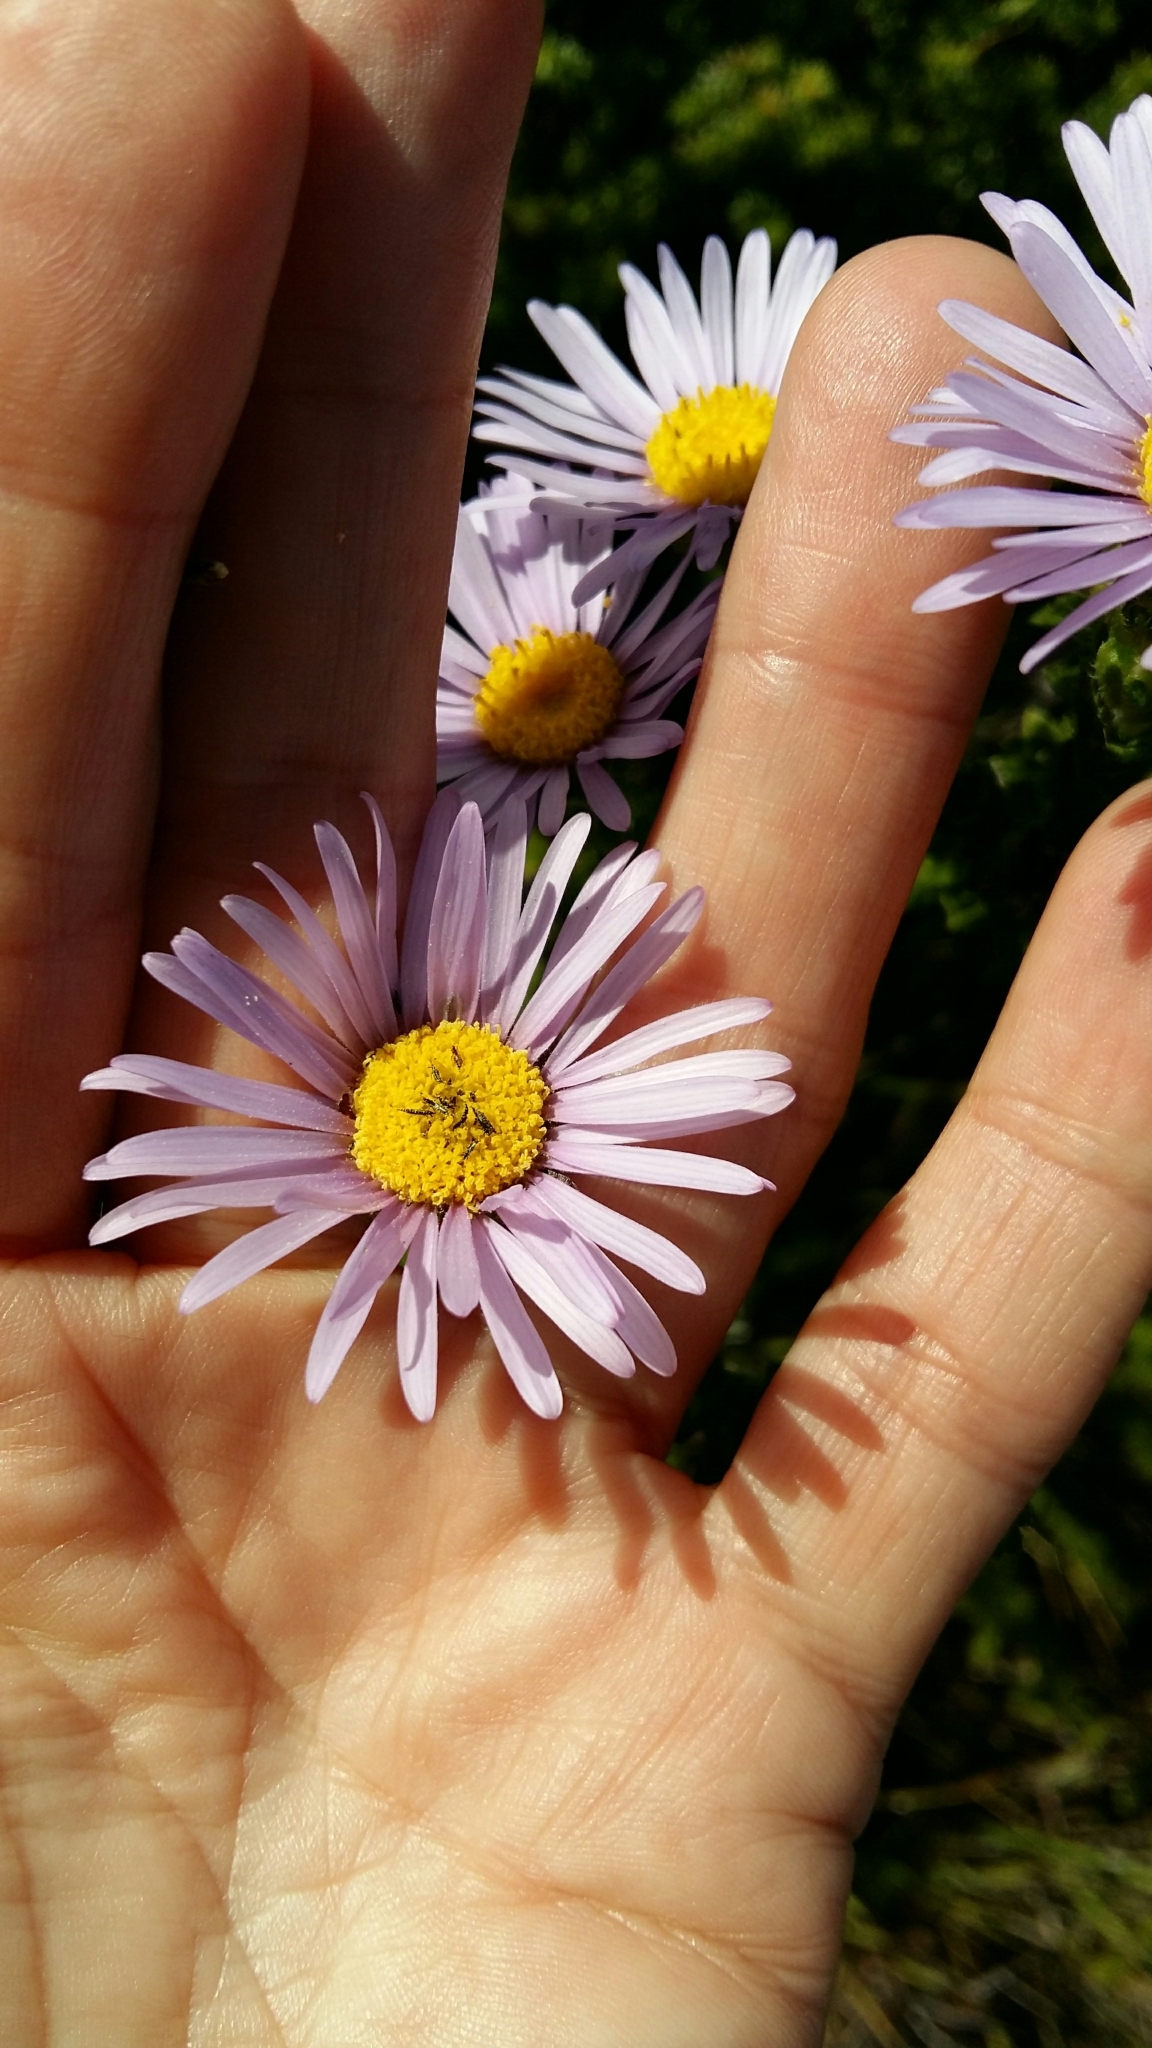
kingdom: Plantae
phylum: Tracheophyta
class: Magnoliopsida
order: Asterales
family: Asteraceae
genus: Felicia
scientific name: Felicia echinata
